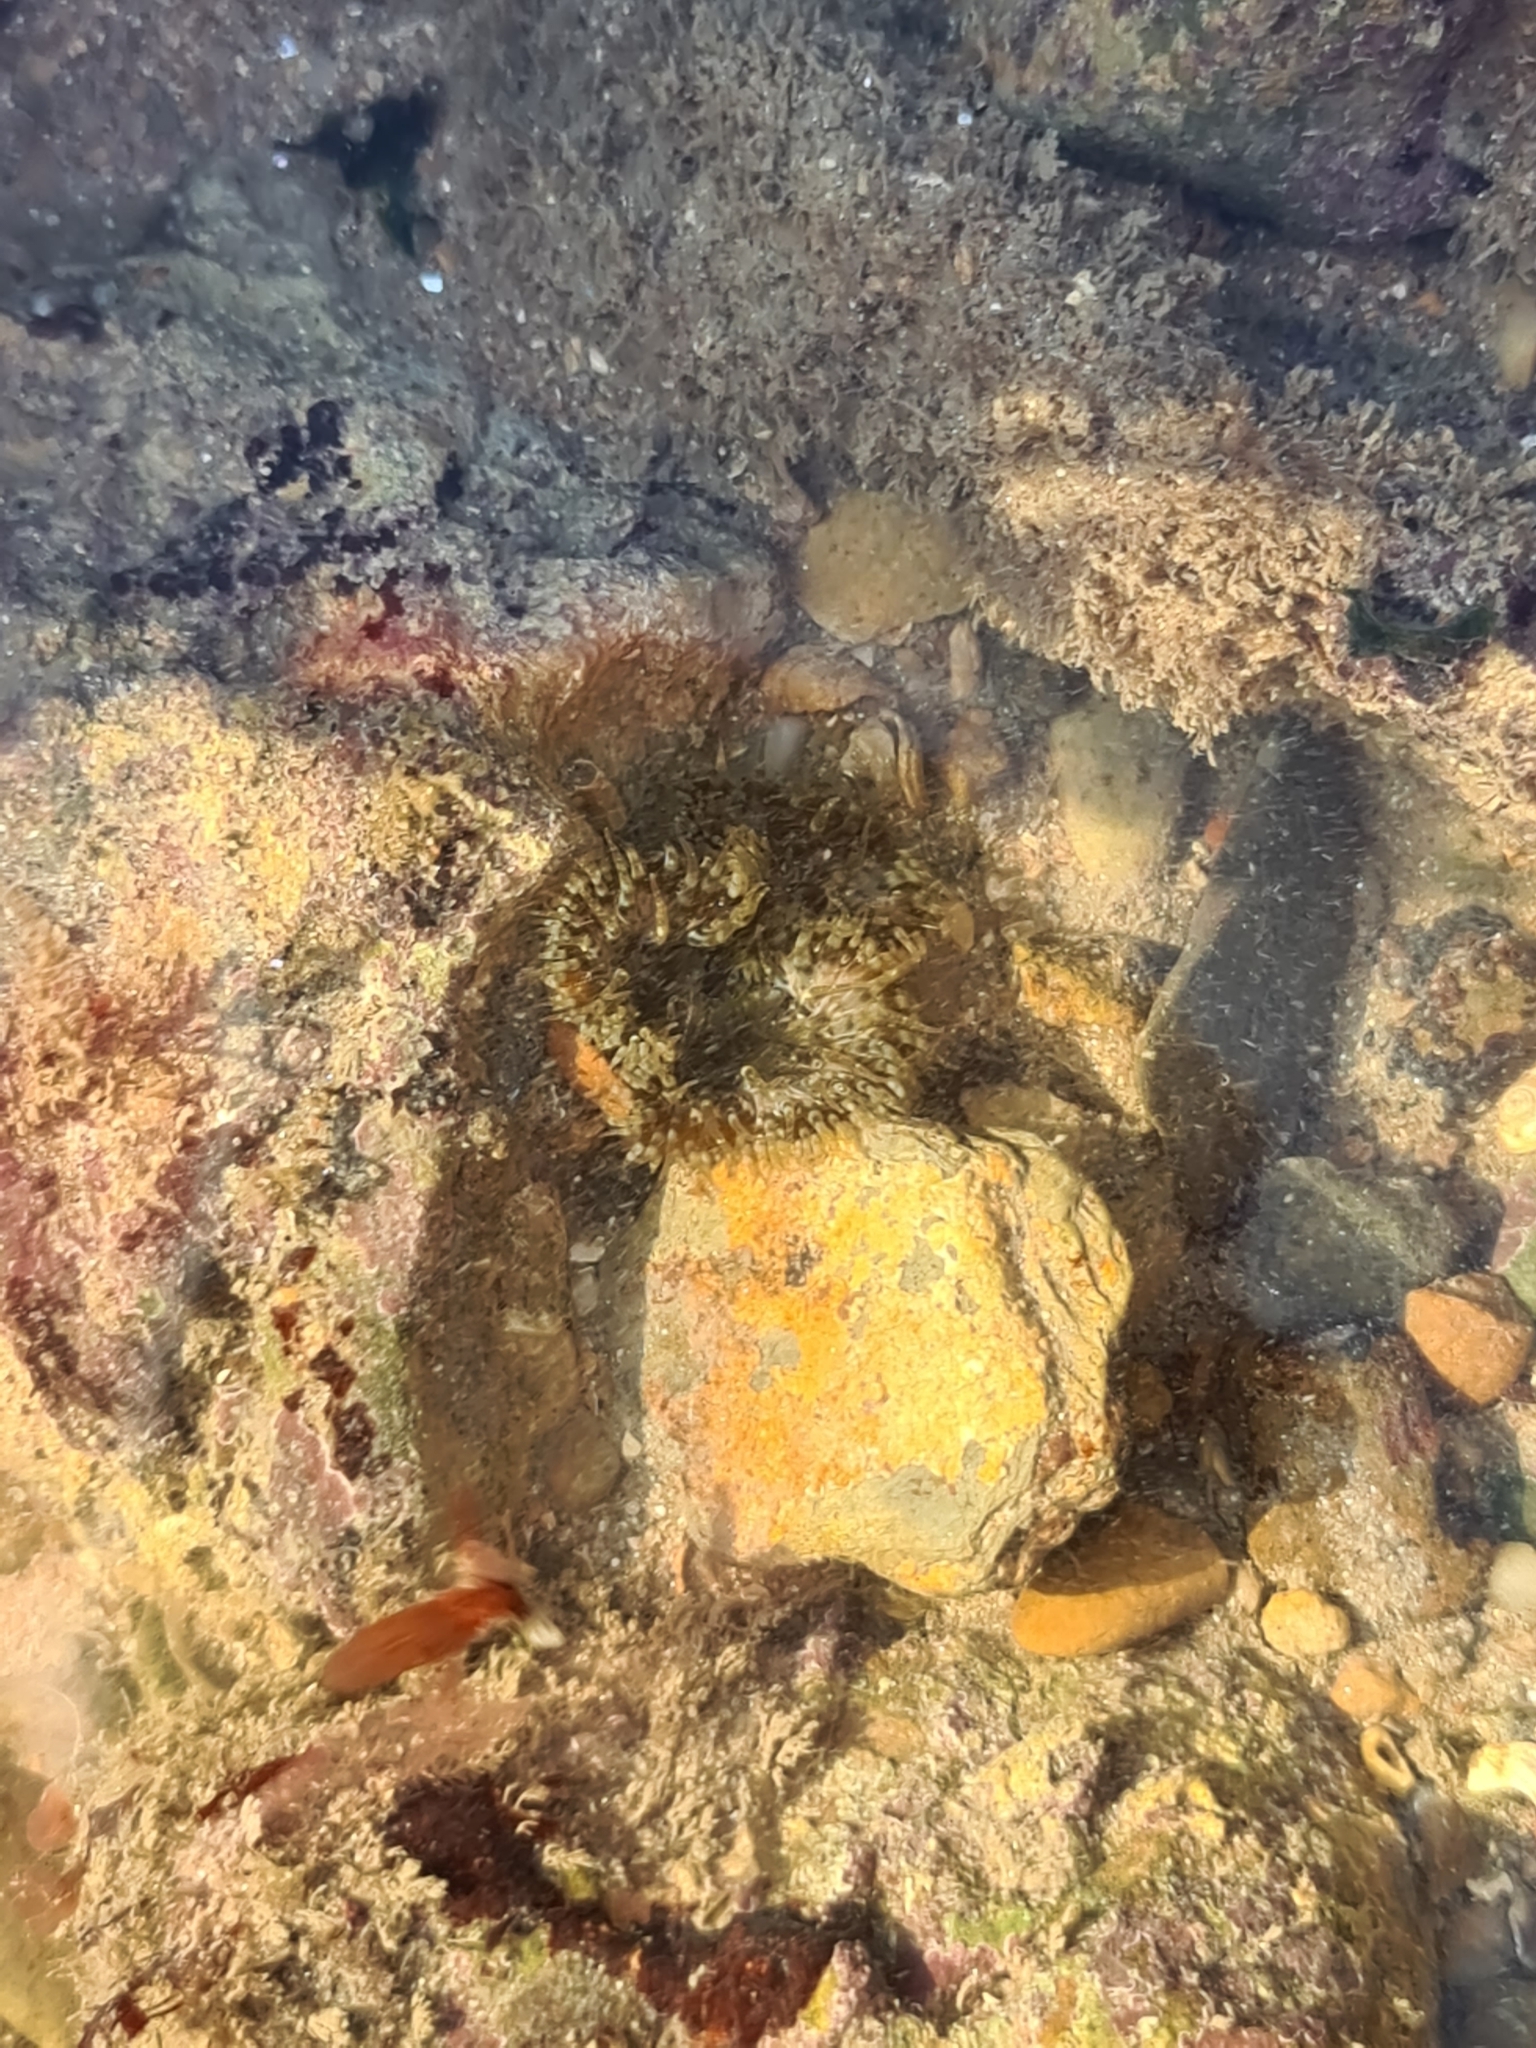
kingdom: Animalia
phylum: Cnidaria
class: Anthozoa
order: Actiniaria
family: Sagartiidae
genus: Cereus
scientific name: Cereus pedunculatus
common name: Daisy anemone
